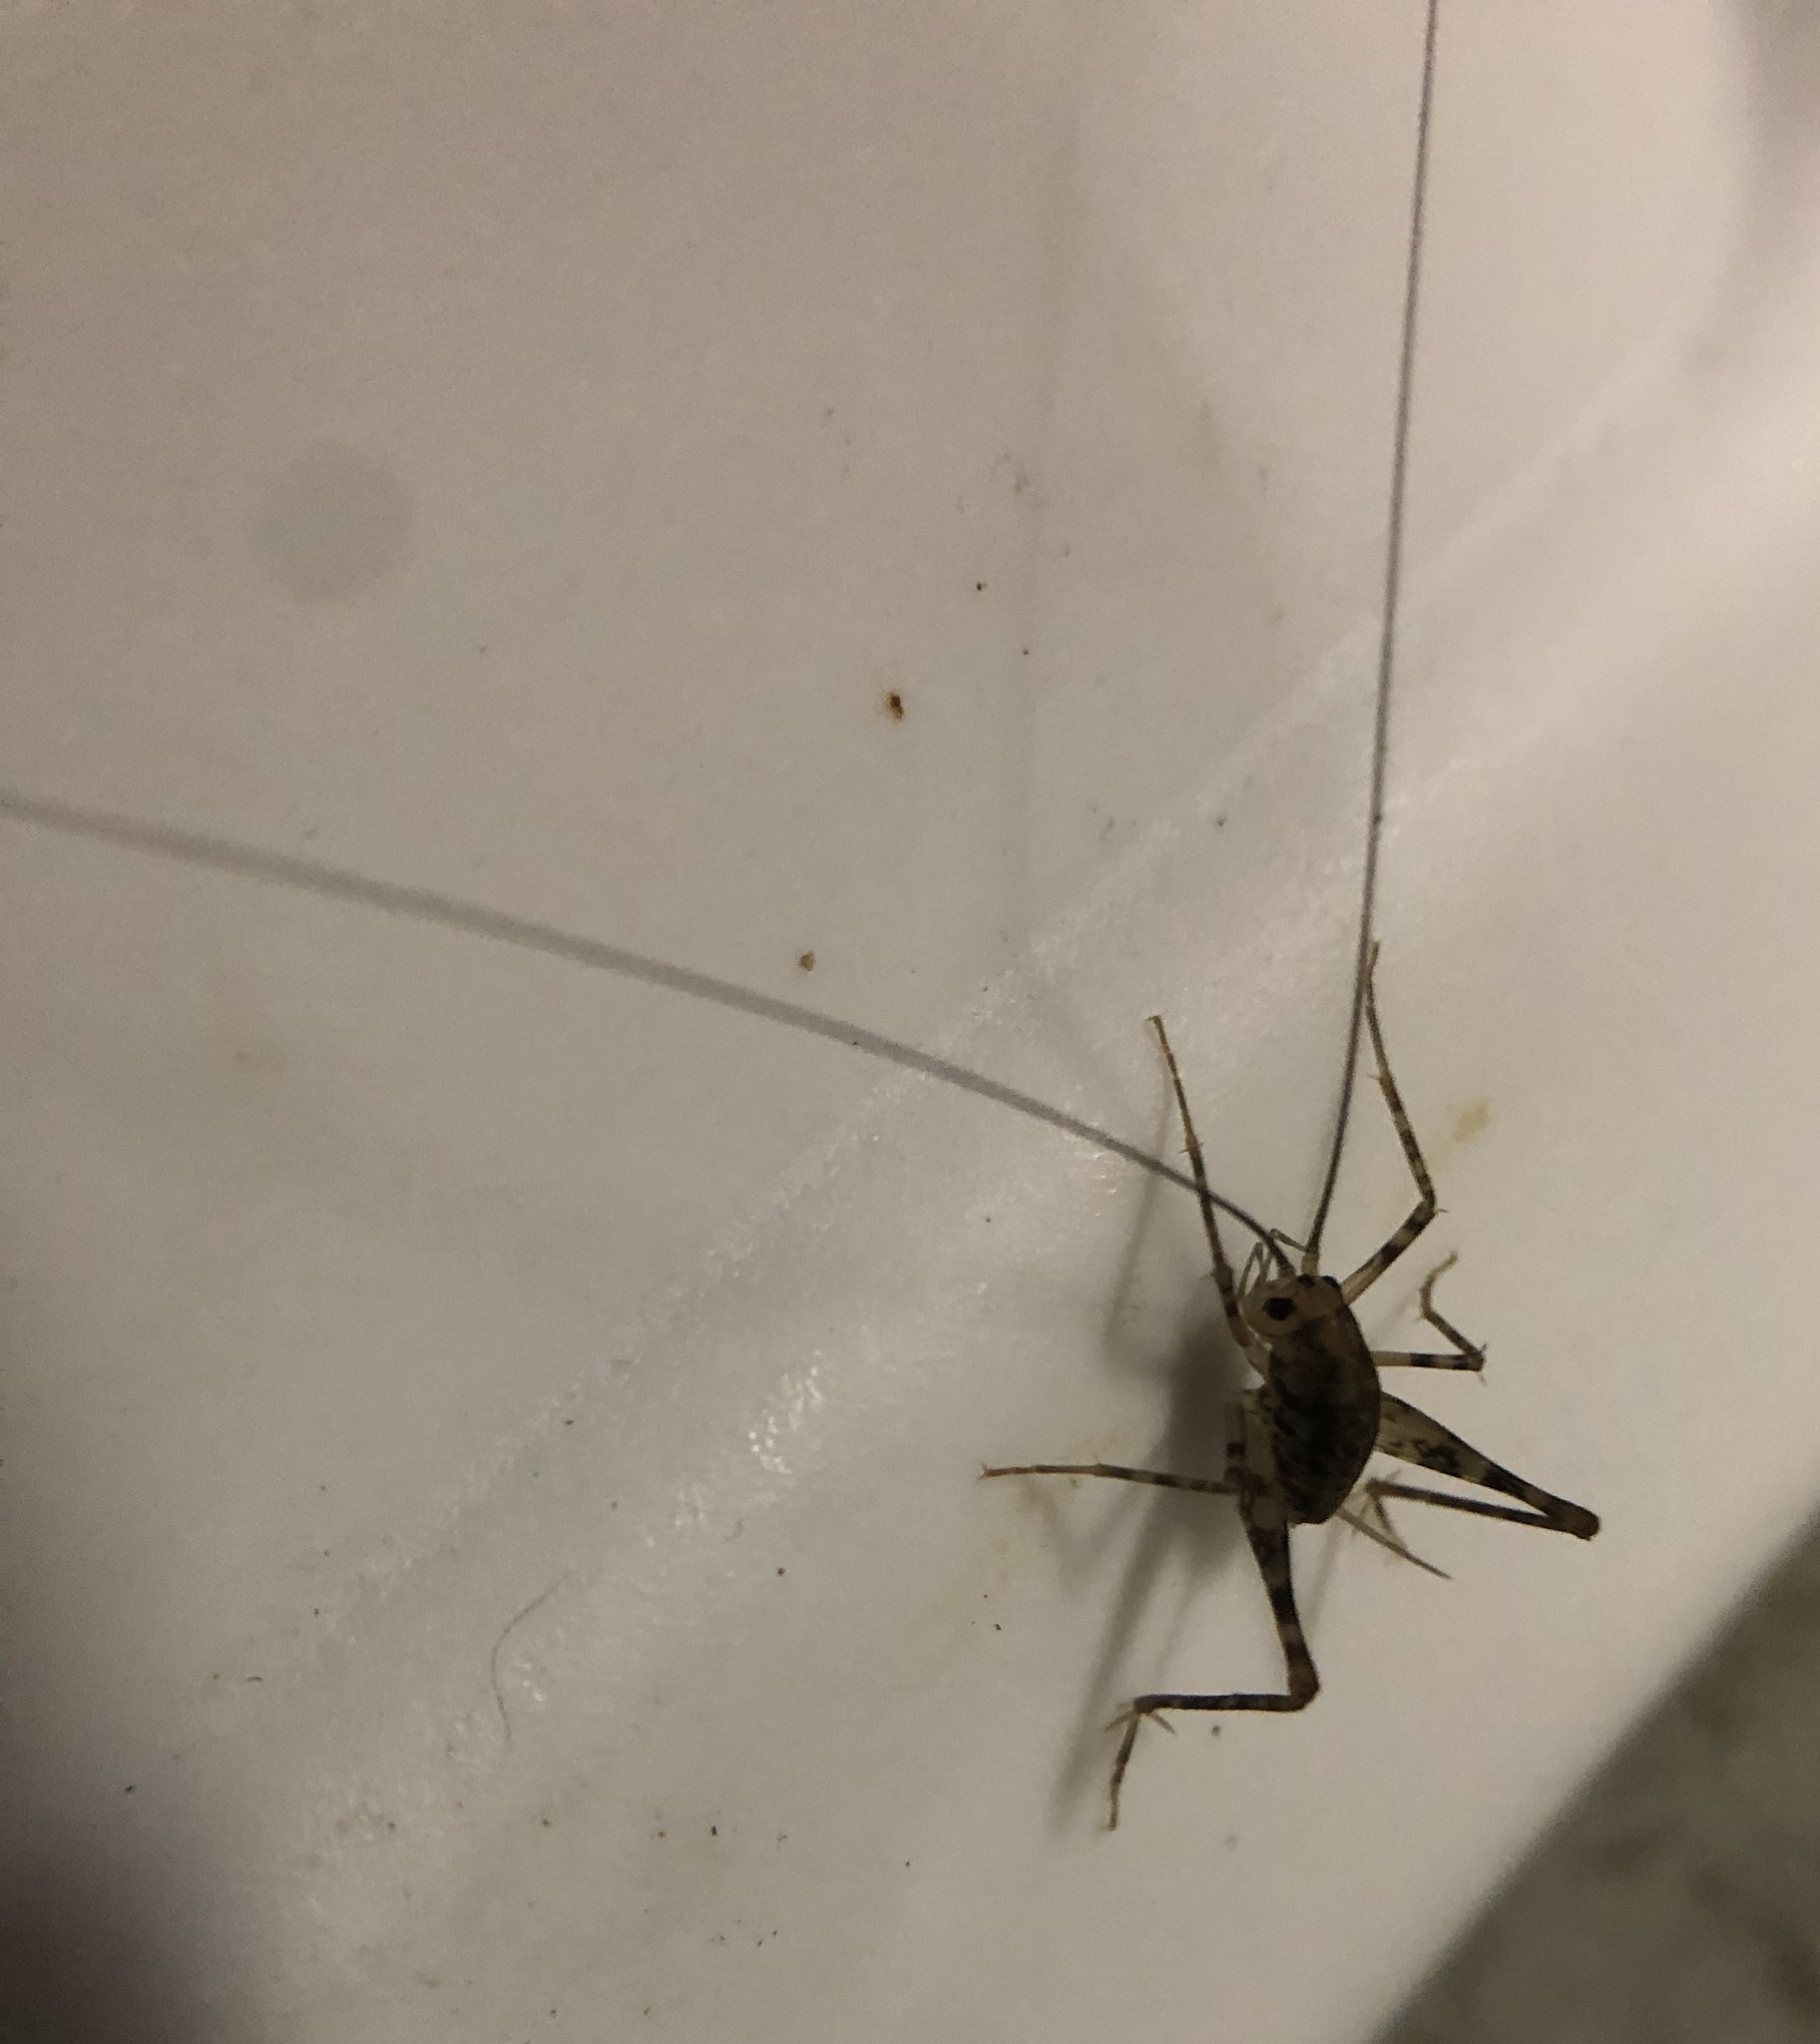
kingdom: Animalia
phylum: Arthropoda
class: Insecta
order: Orthoptera
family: Rhaphidophoridae
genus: Tachycines
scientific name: Tachycines asynamorus
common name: Greenhouse camel cricket
